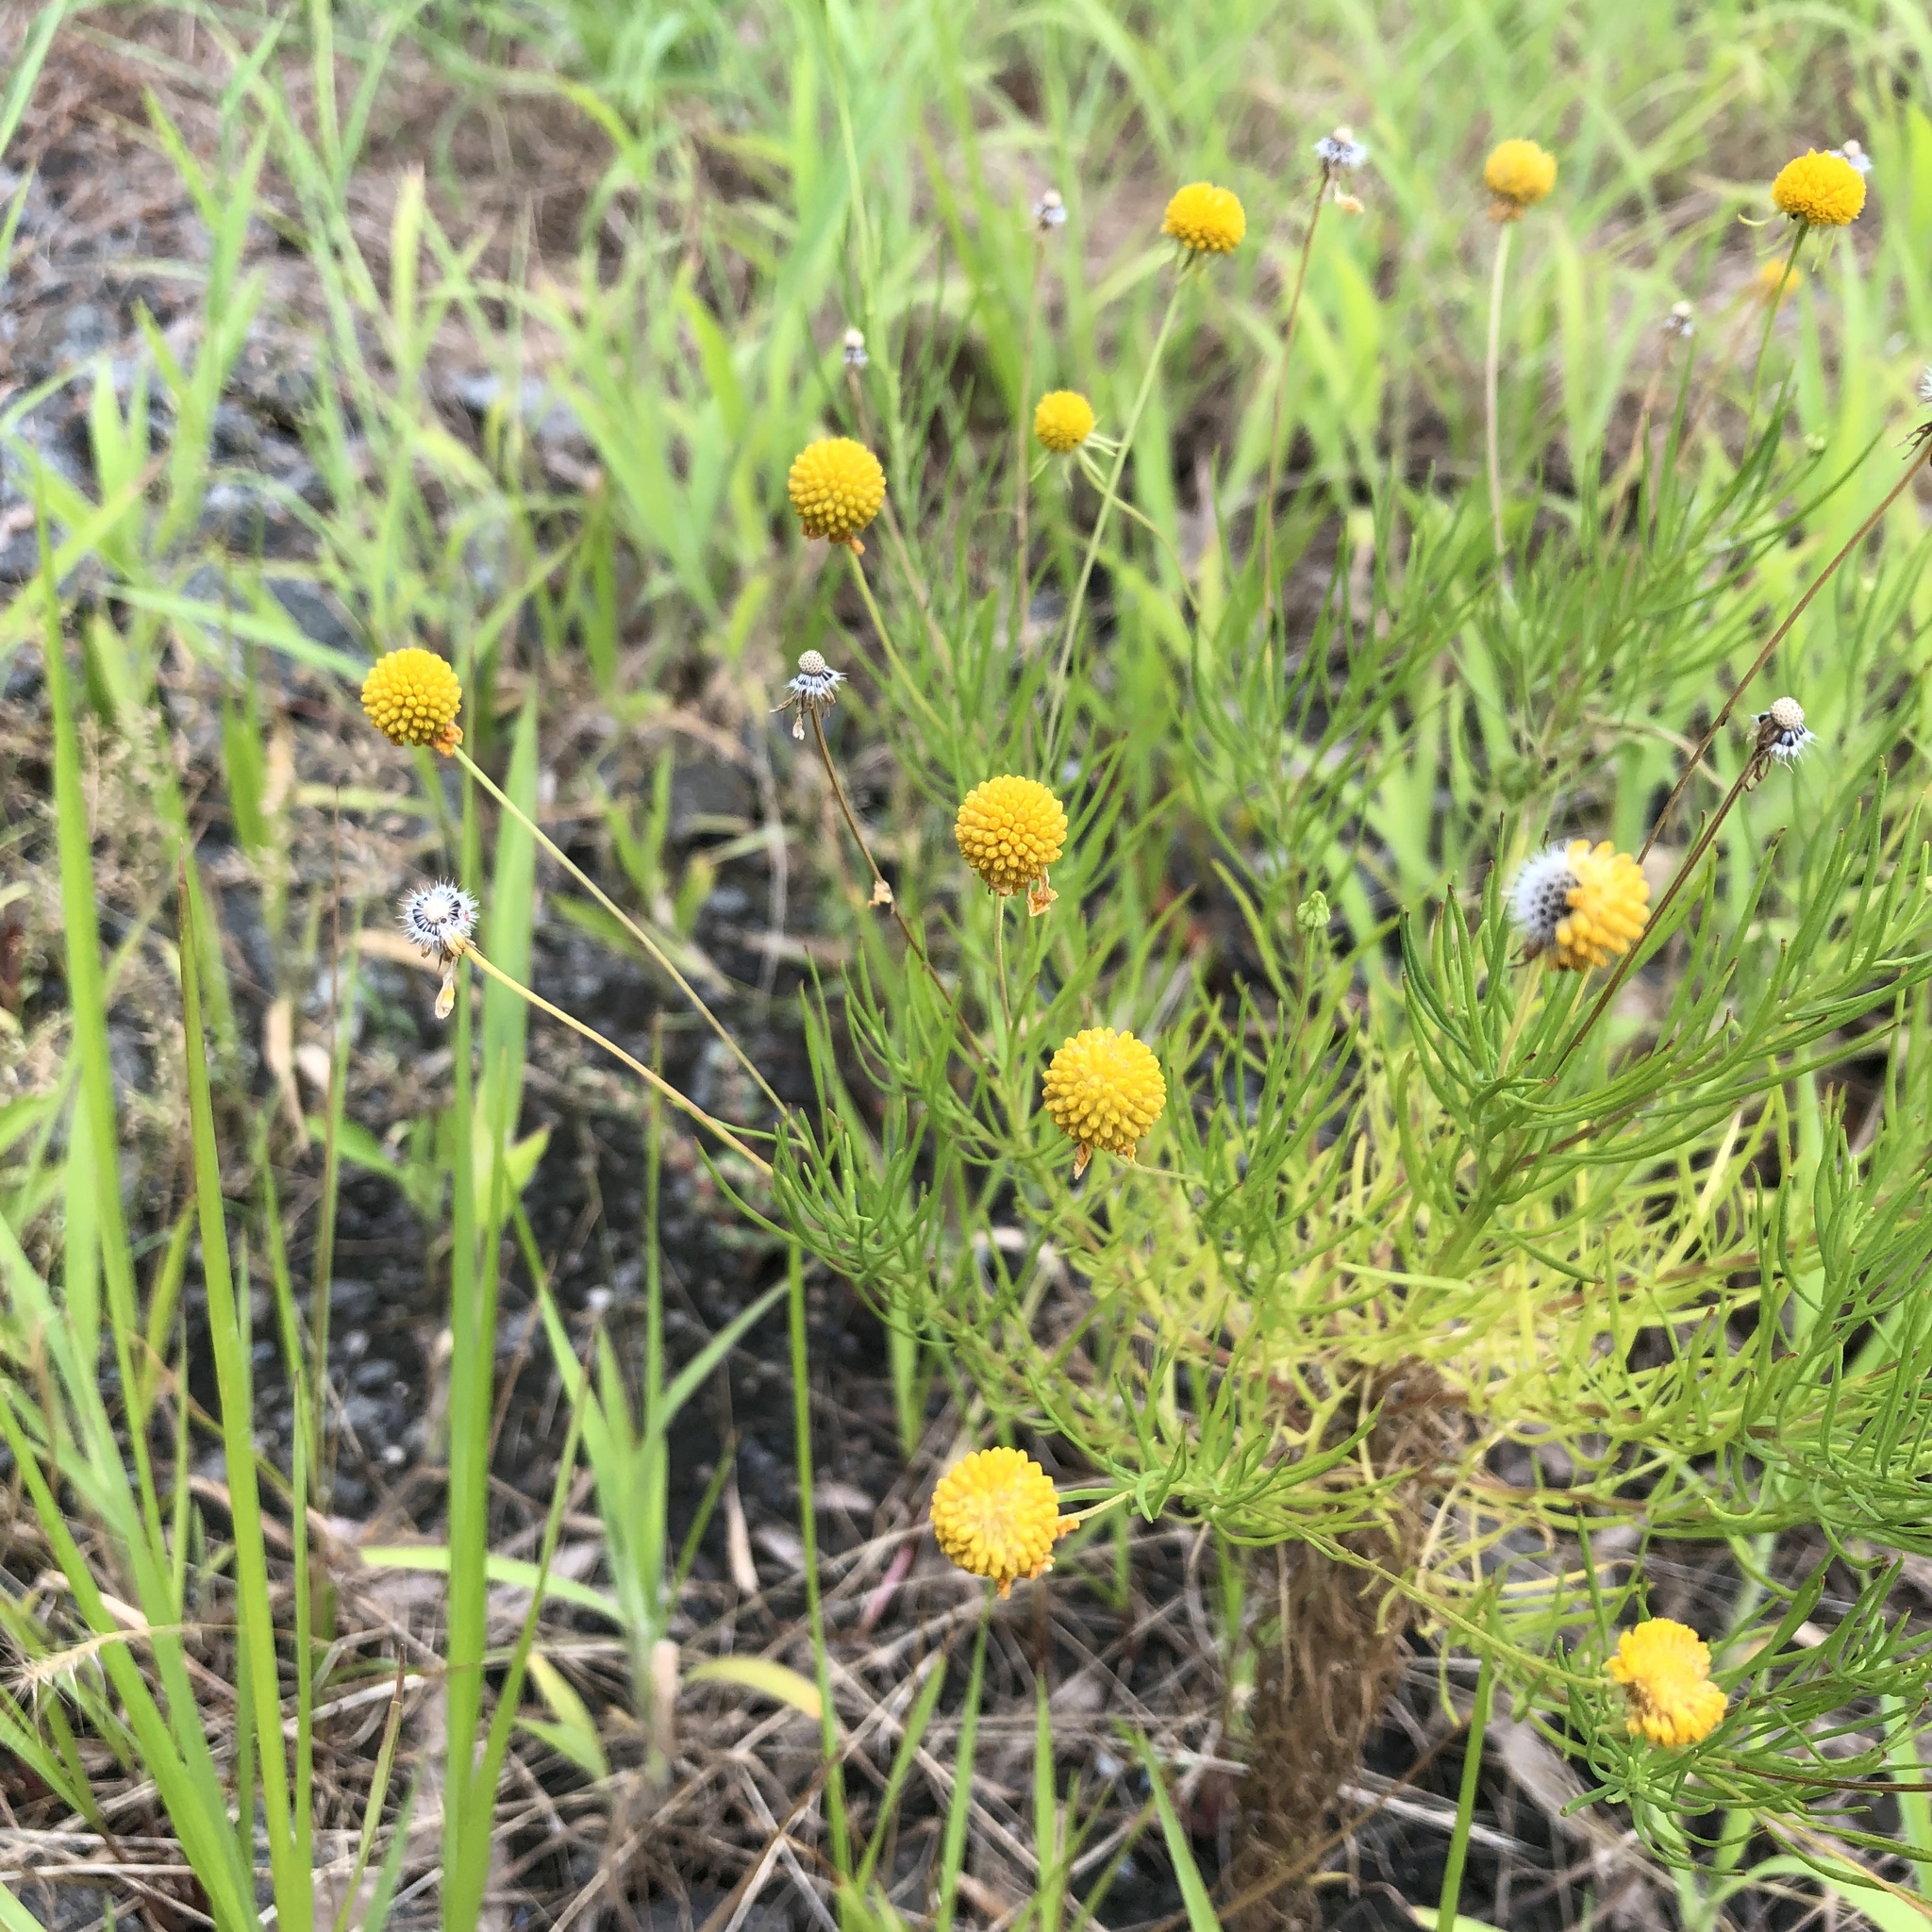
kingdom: Plantae
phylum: Tracheophyta
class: Magnoliopsida
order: Asterales
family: Asteraceae
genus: Helenium
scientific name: Helenium amarum
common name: Bitter sneezeweed
